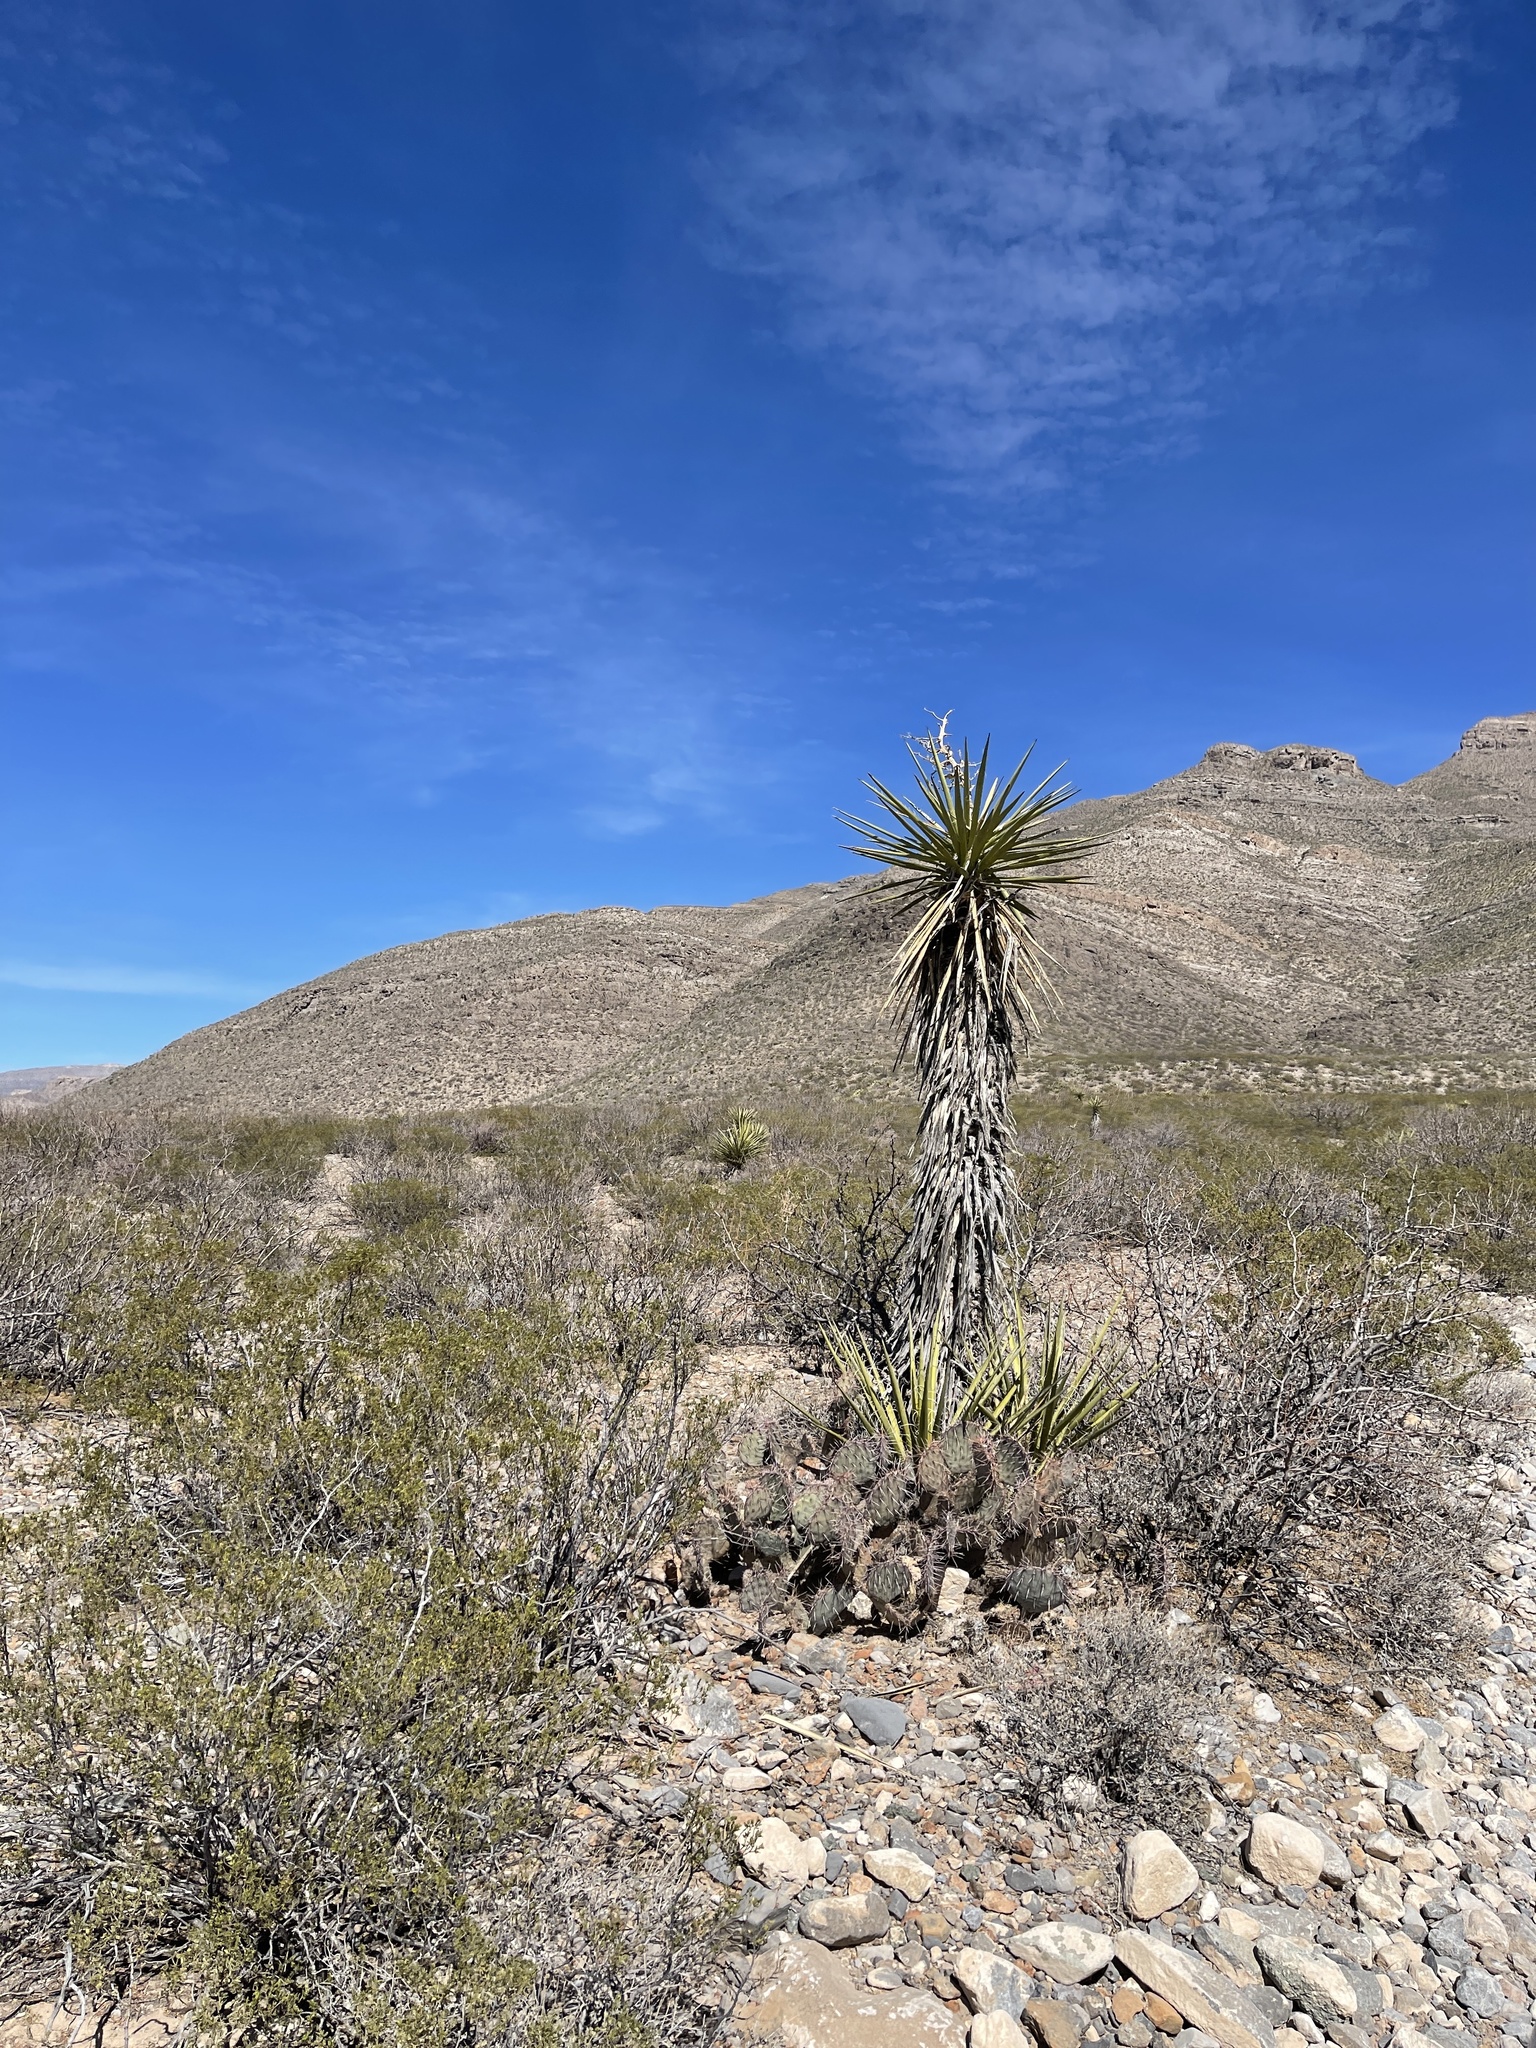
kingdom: Plantae
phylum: Tracheophyta
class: Liliopsida
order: Asparagales
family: Asparagaceae
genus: Yucca
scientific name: Yucca treculiana
